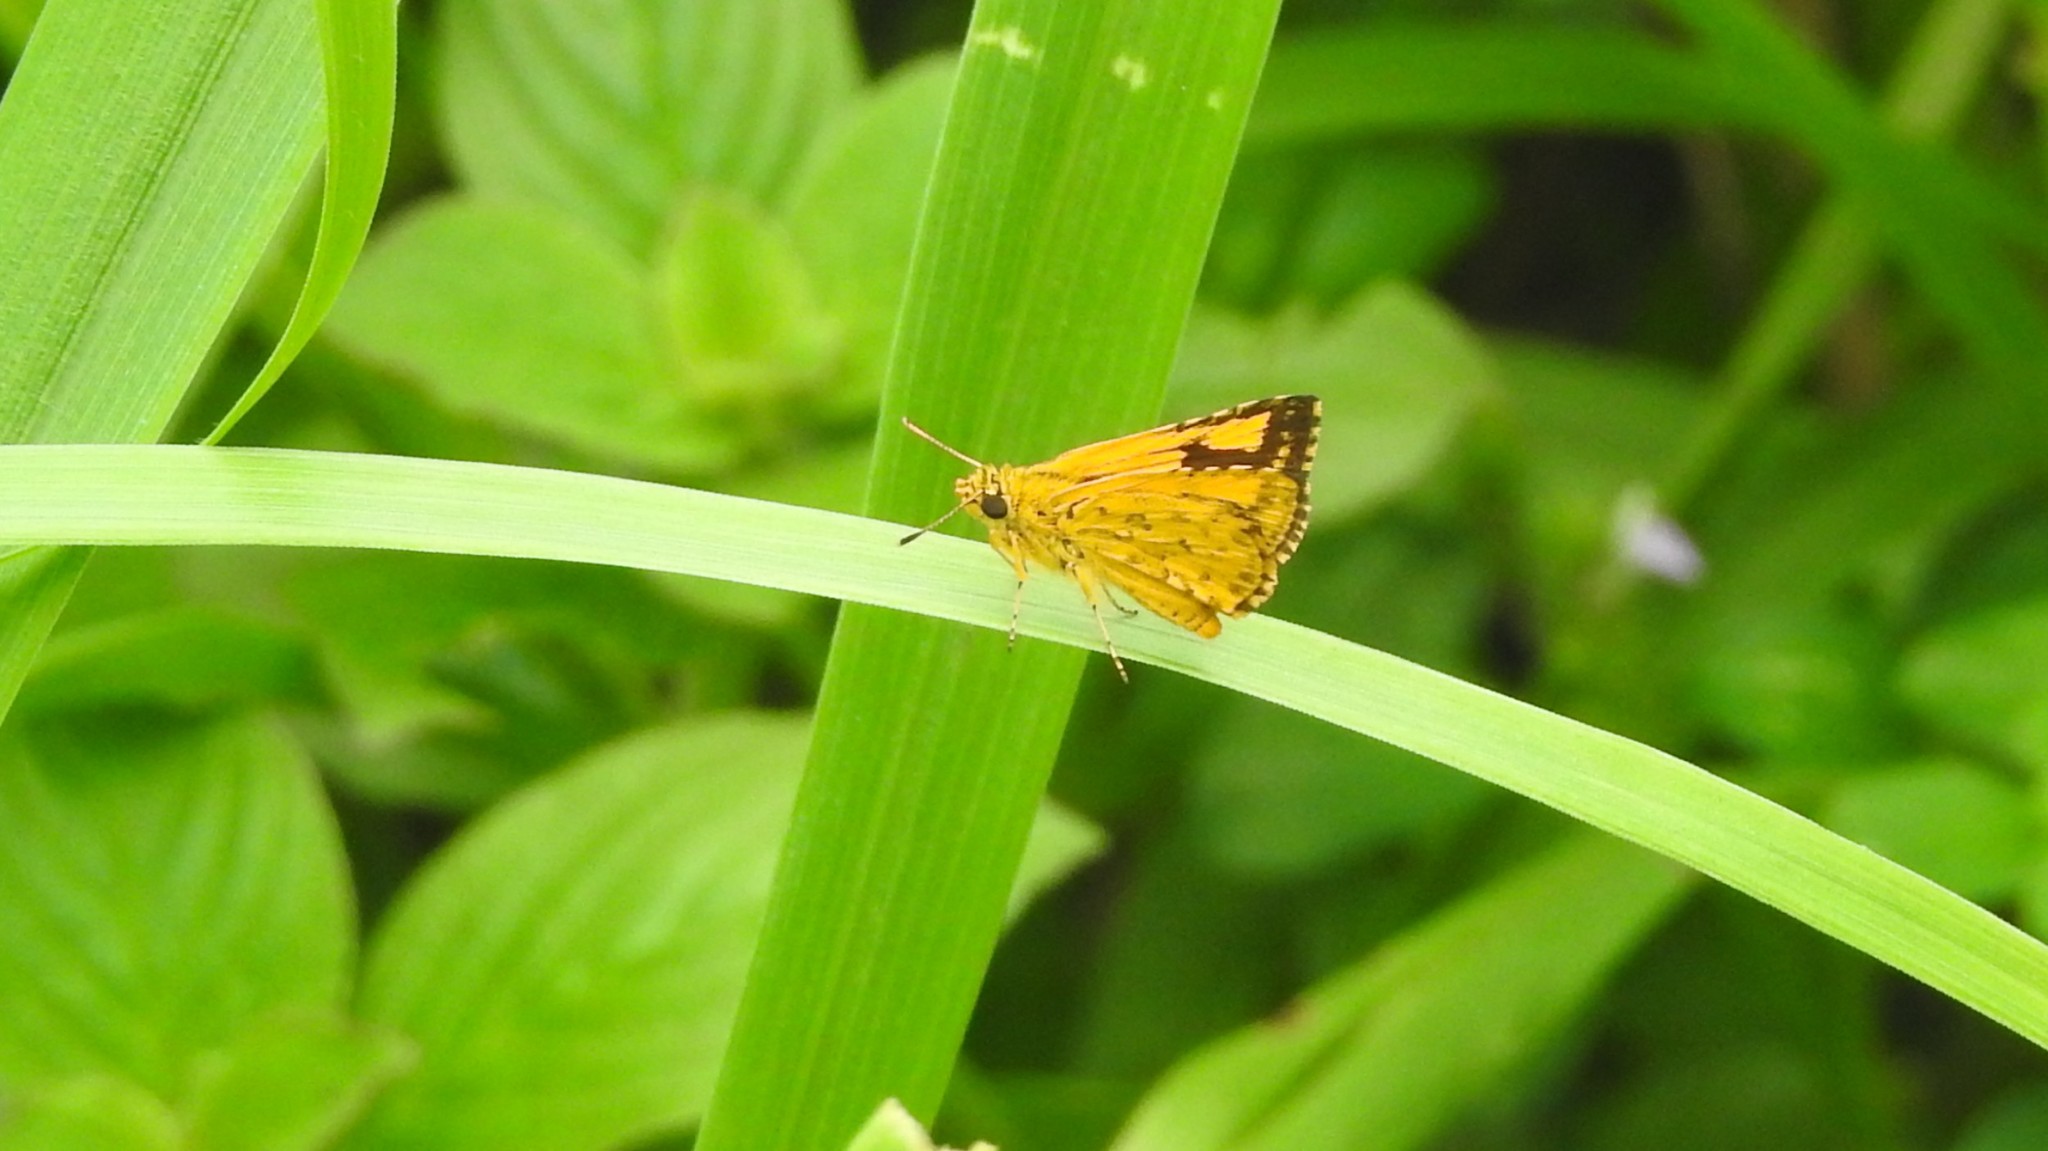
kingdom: Animalia
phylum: Arthropoda
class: Insecta
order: Lepidoptera
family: Hesperiidae
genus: Ampittia
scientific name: Ampittia dioscorides
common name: Common bush hopper
